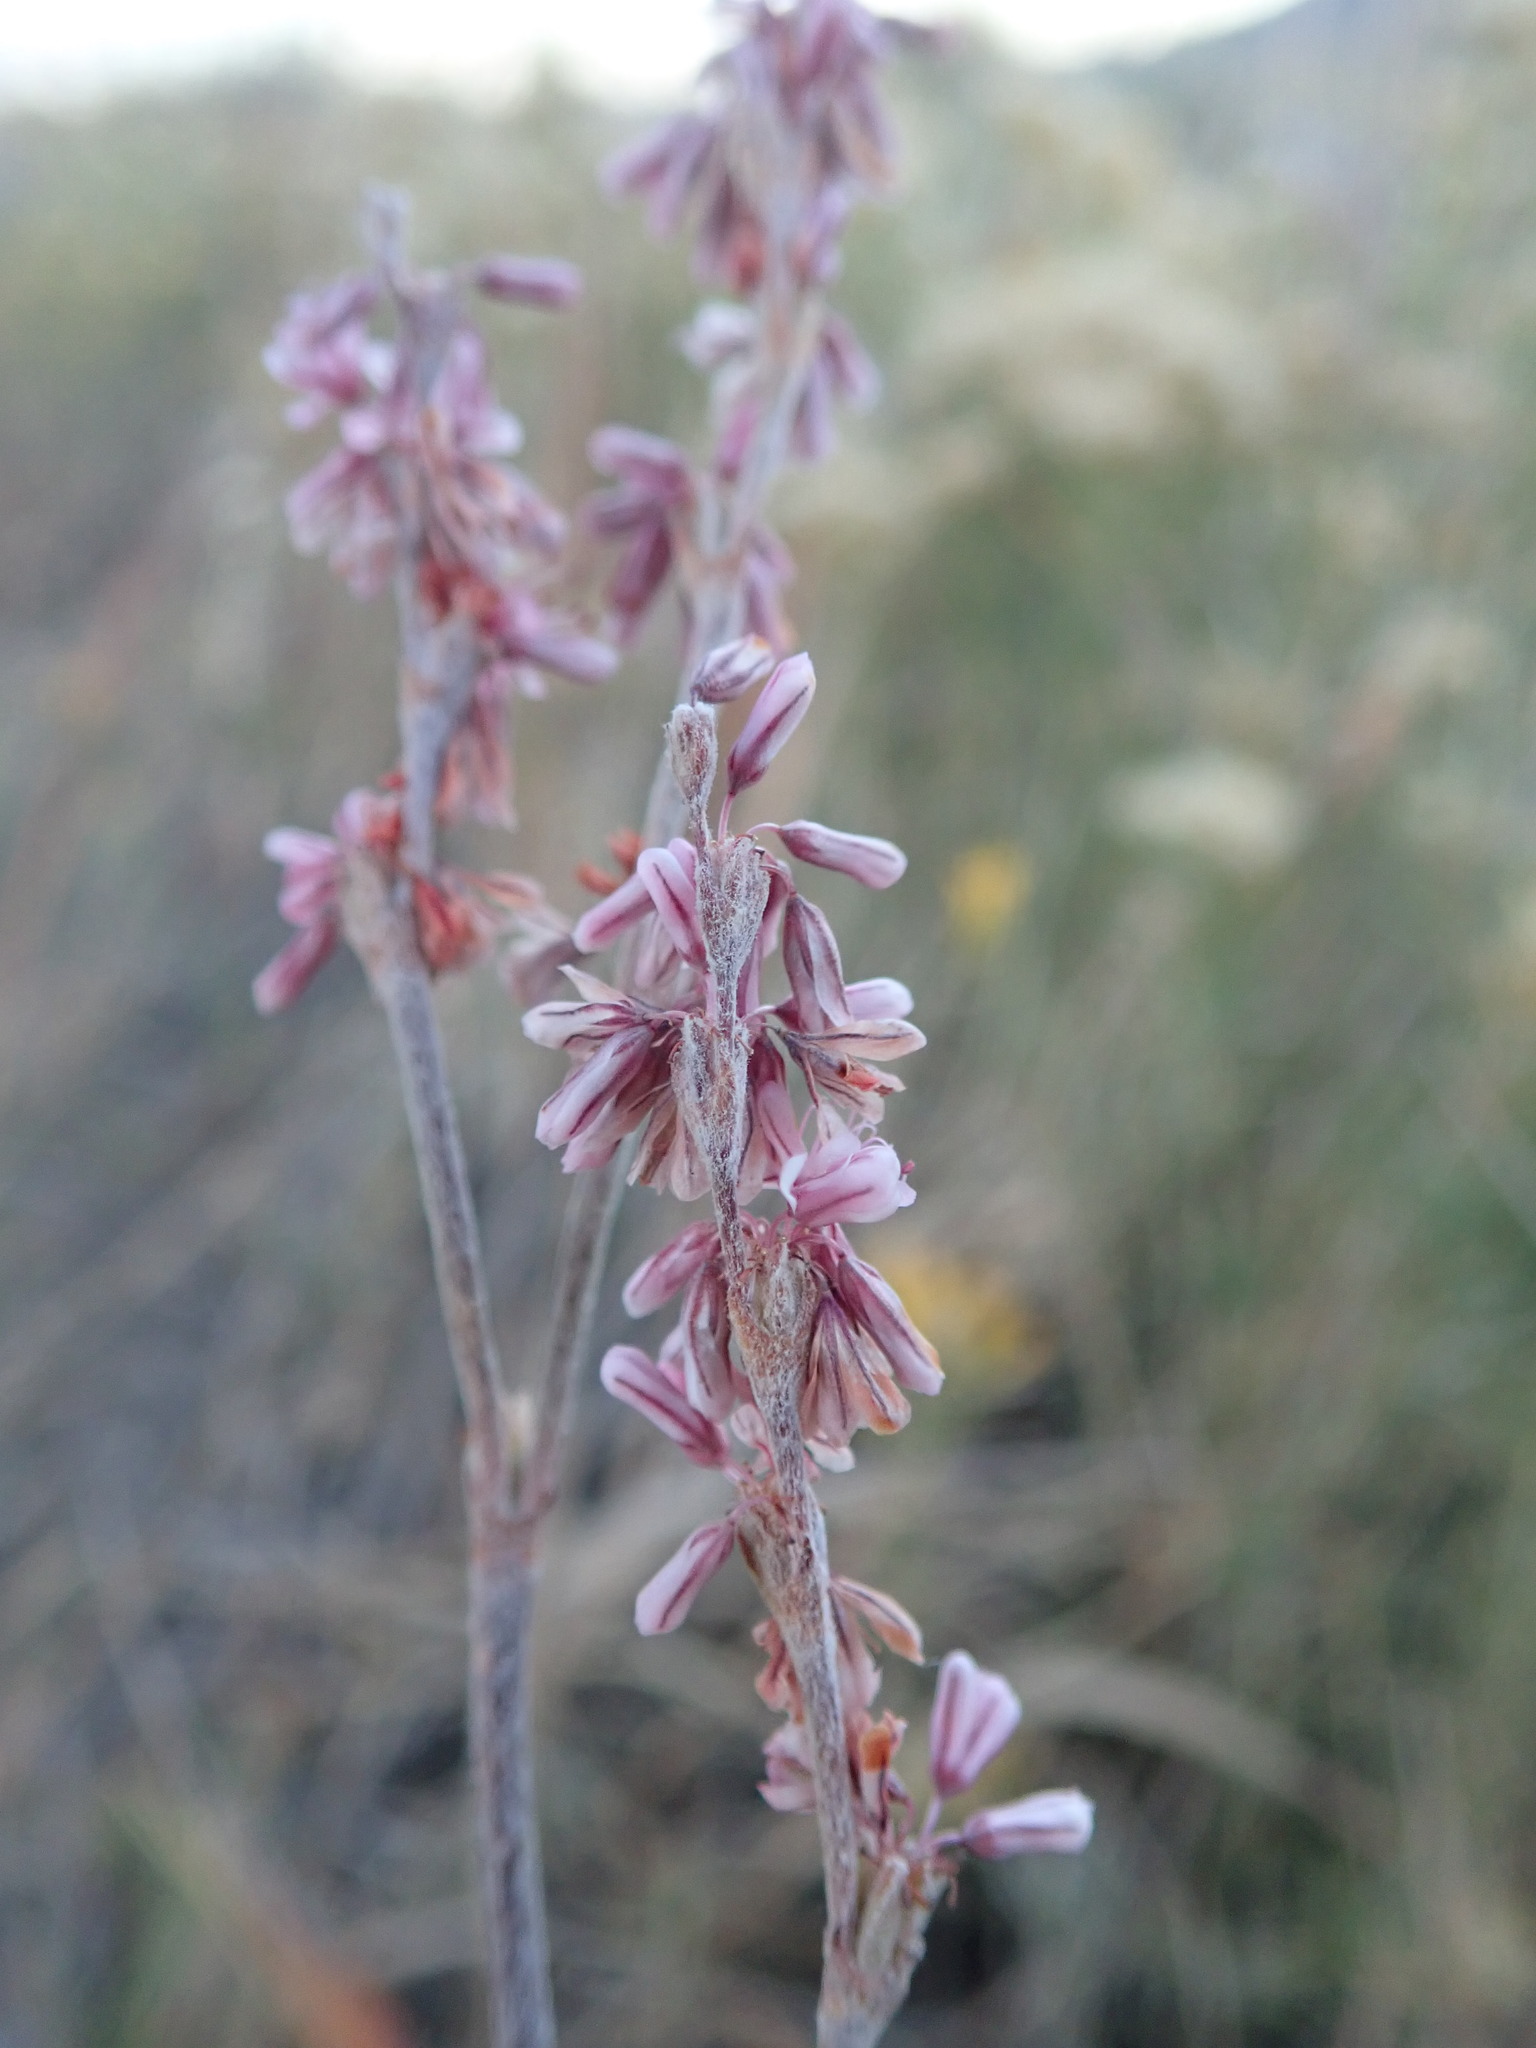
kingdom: Plantae
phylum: Tracheophyta
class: Magnoliopsida
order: Caryophyllales
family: Polygonaceae
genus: Eriogonum
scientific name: Eriogonum racemosum
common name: Redroot wild buckwheat
